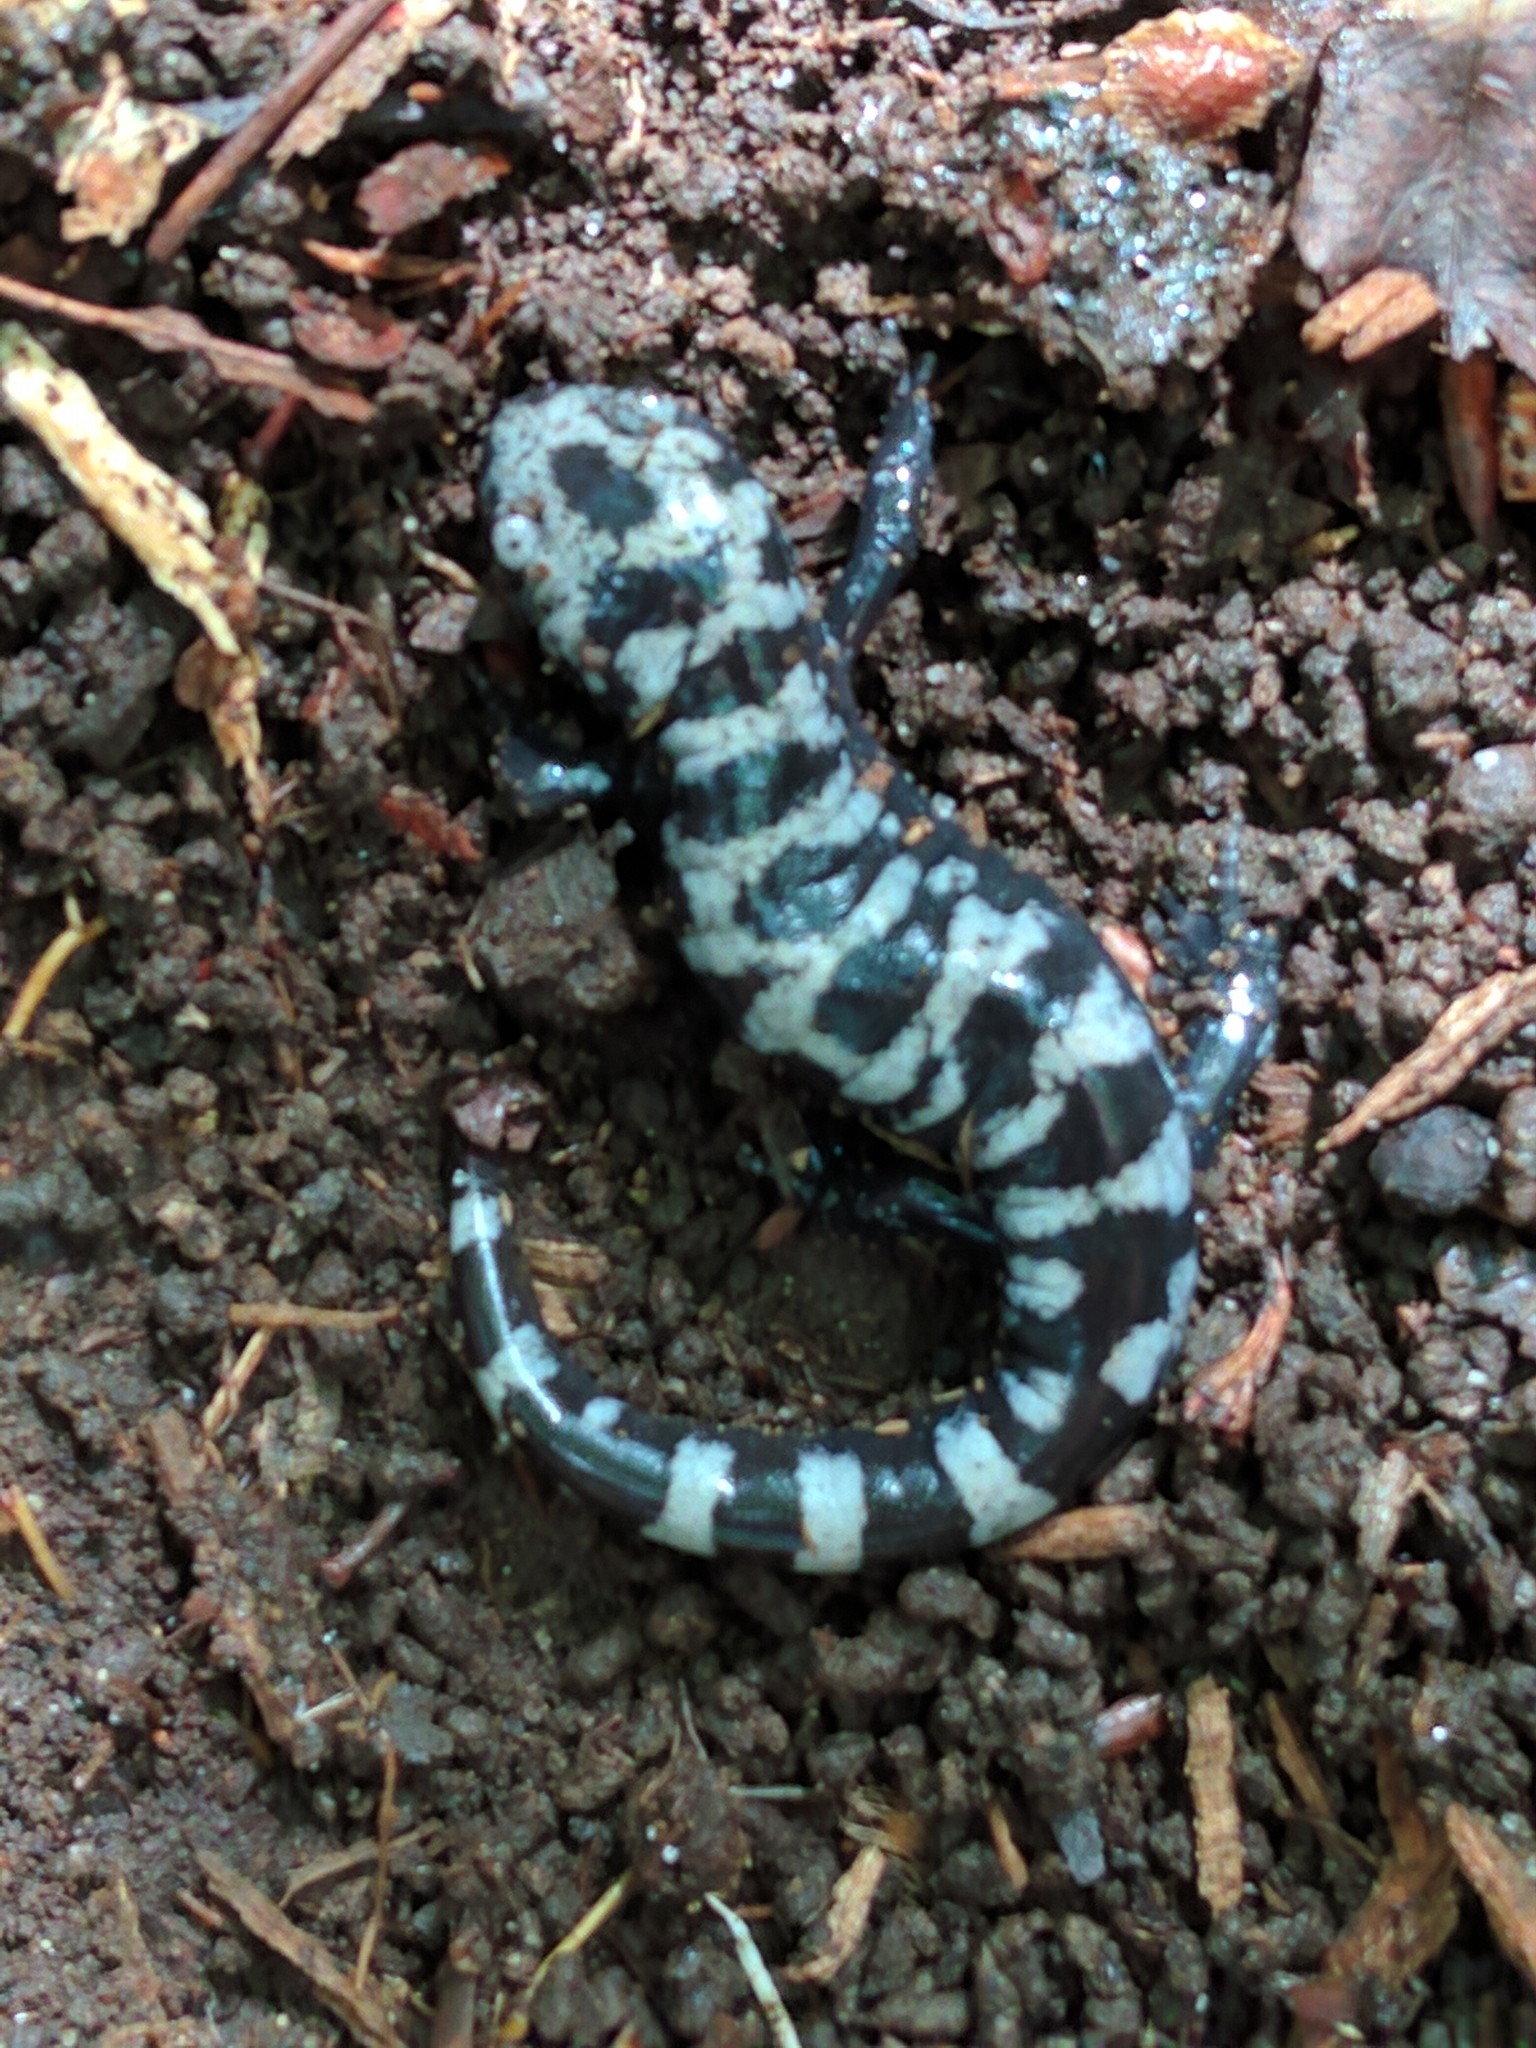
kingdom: Animalia
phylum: Chordata
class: Amphibia
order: Caudata
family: Ambystomatidae
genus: Ambystoma
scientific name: Ambystoma opacum
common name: Marbled salamander
